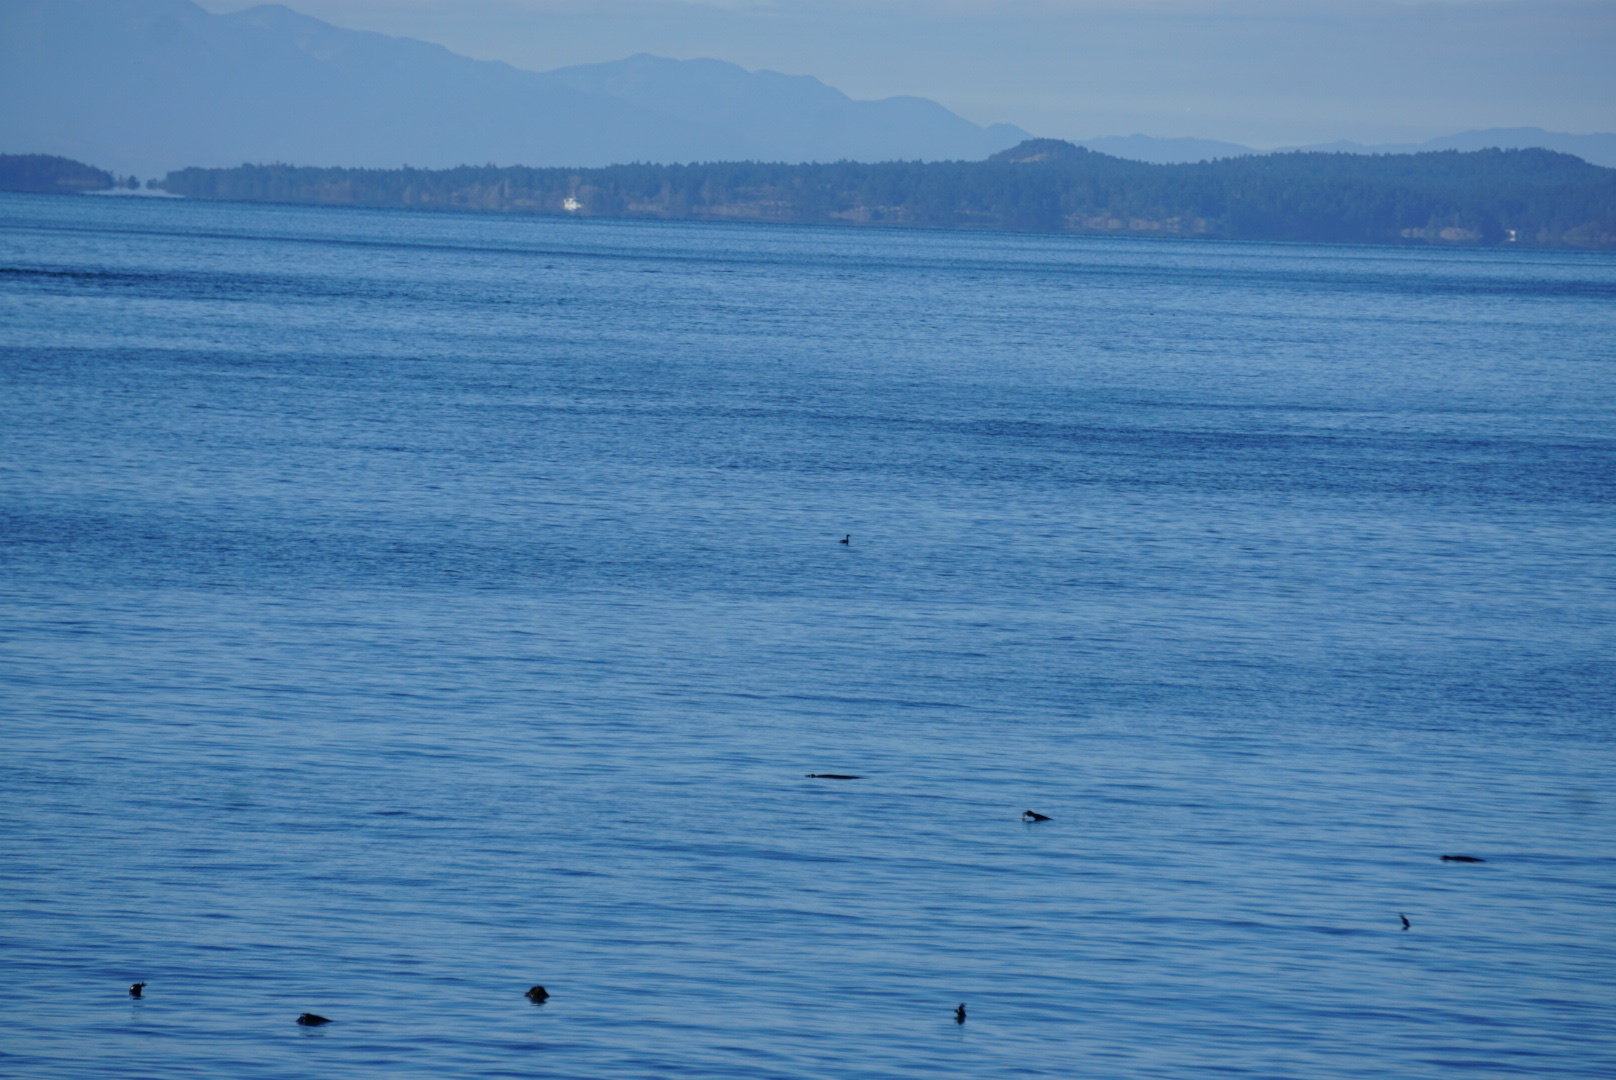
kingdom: Animalia
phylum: Chordata
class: Aves
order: Podicipediformes
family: Podicipedidae
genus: Podiceps
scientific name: Podiceps grisegena
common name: Red-necked grebe
